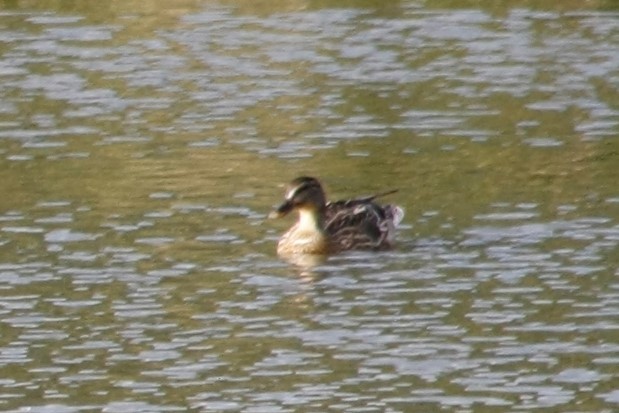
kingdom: Animalia
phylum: Chordata
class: Aves
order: Anseriformes
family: Anatidae
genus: Anas
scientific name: Anas platyrhynchos
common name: Mallard
